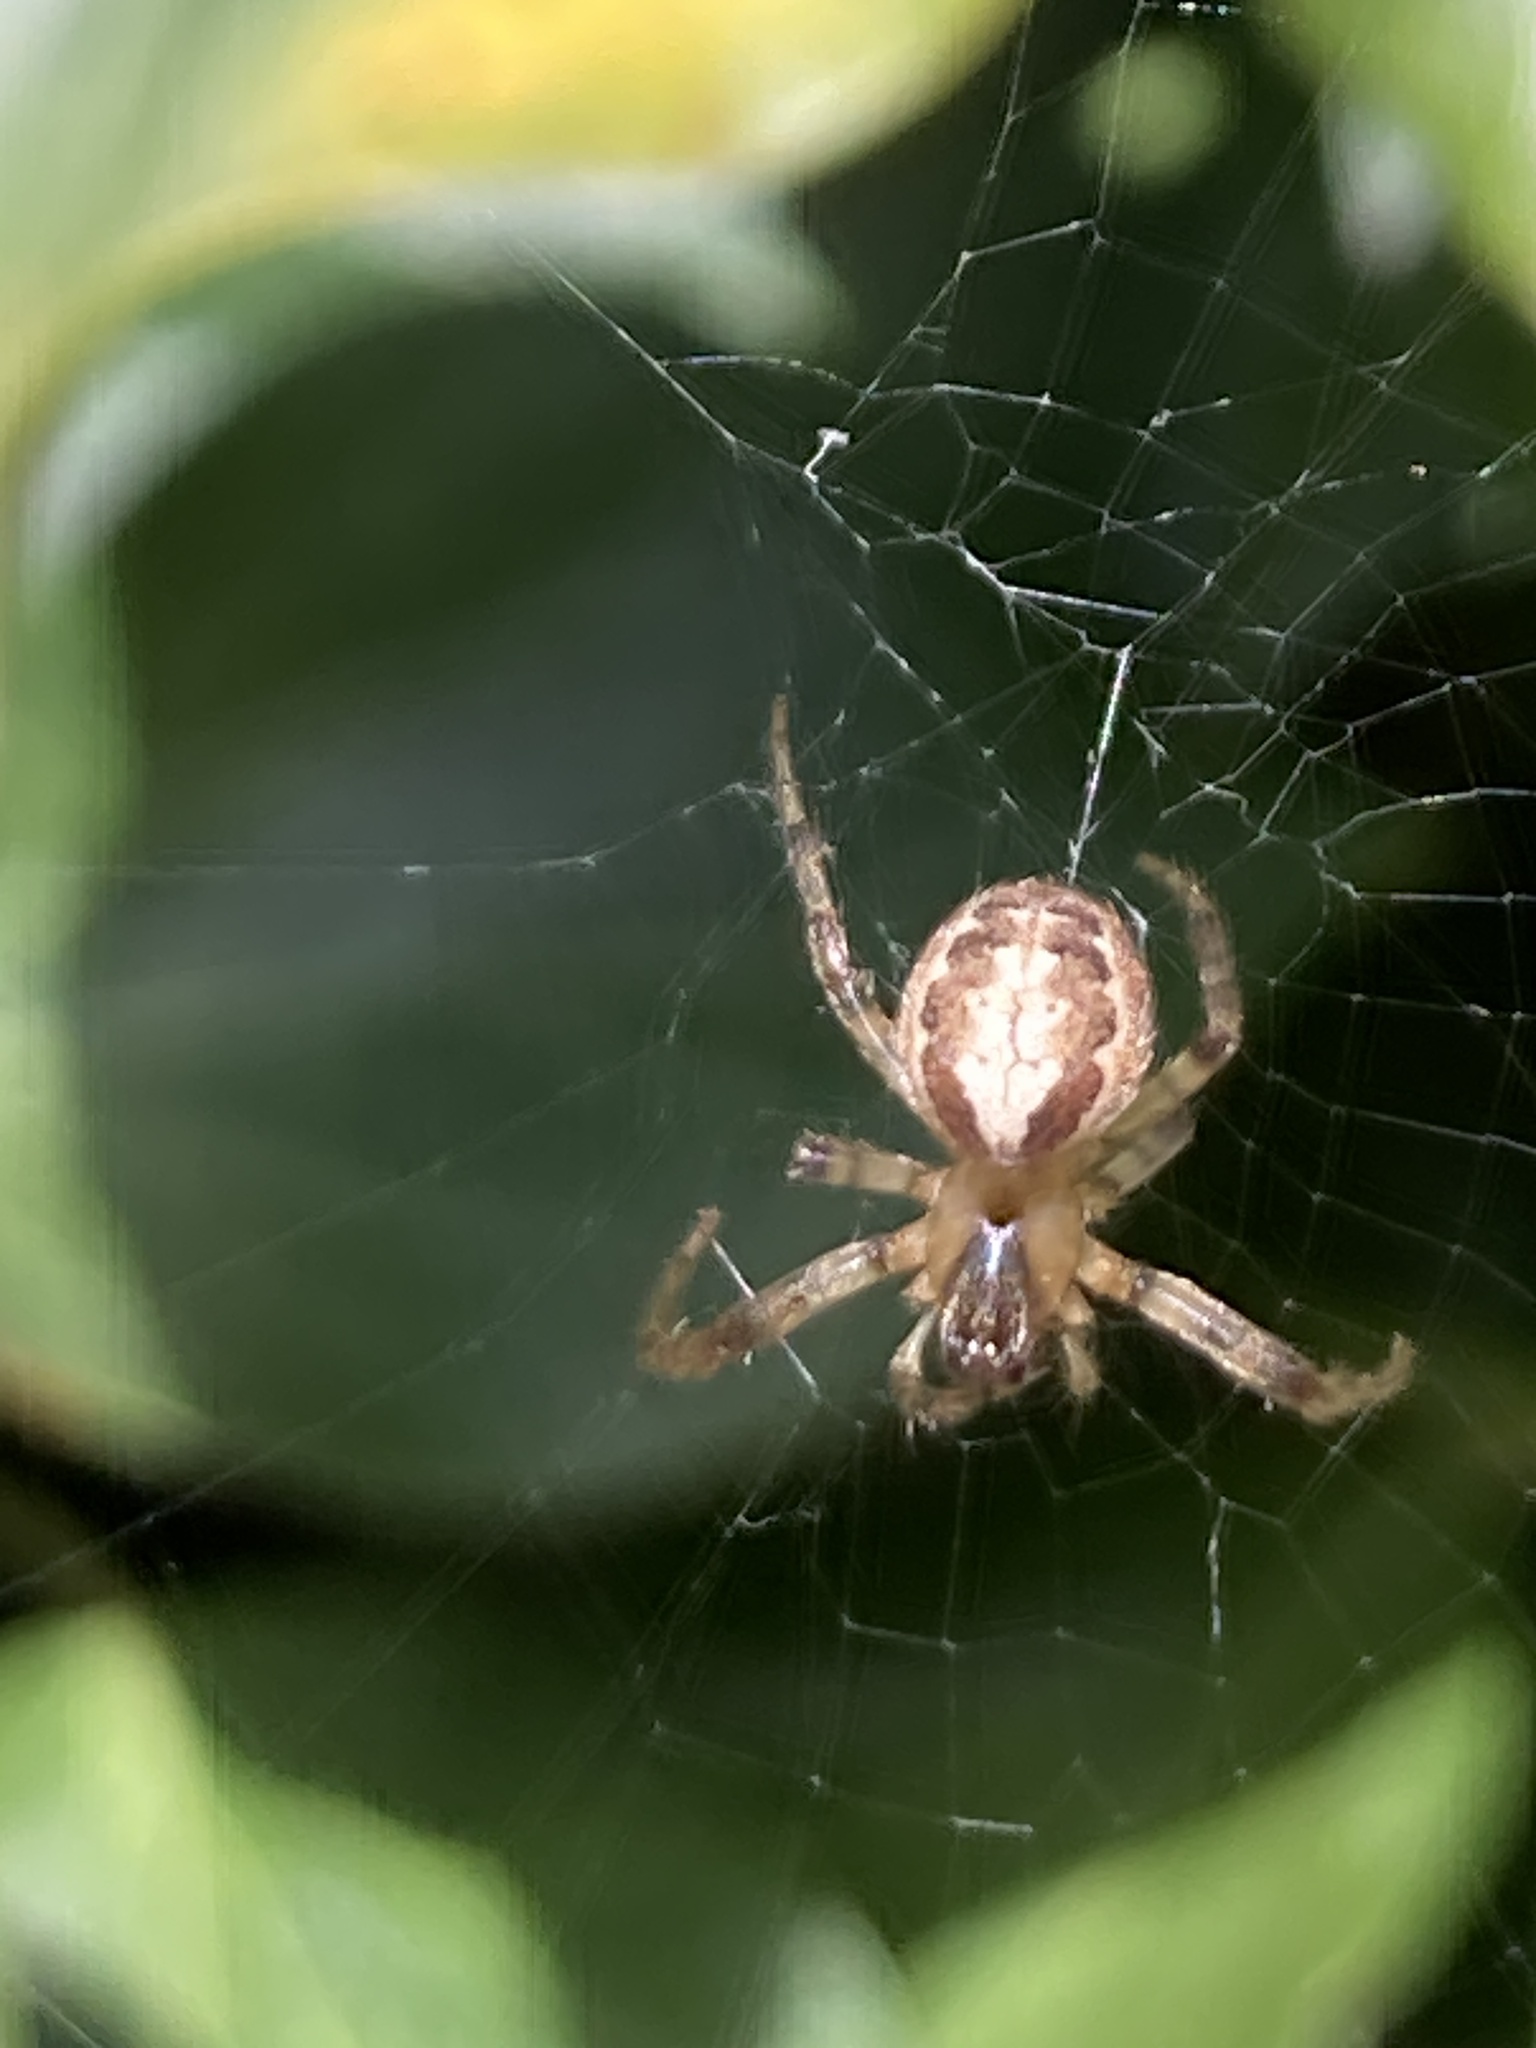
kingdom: Animalia
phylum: Arthropoda
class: Arachnida
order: Araneae
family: Araneidae
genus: Zygiella
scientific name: Zygiella x-notata
